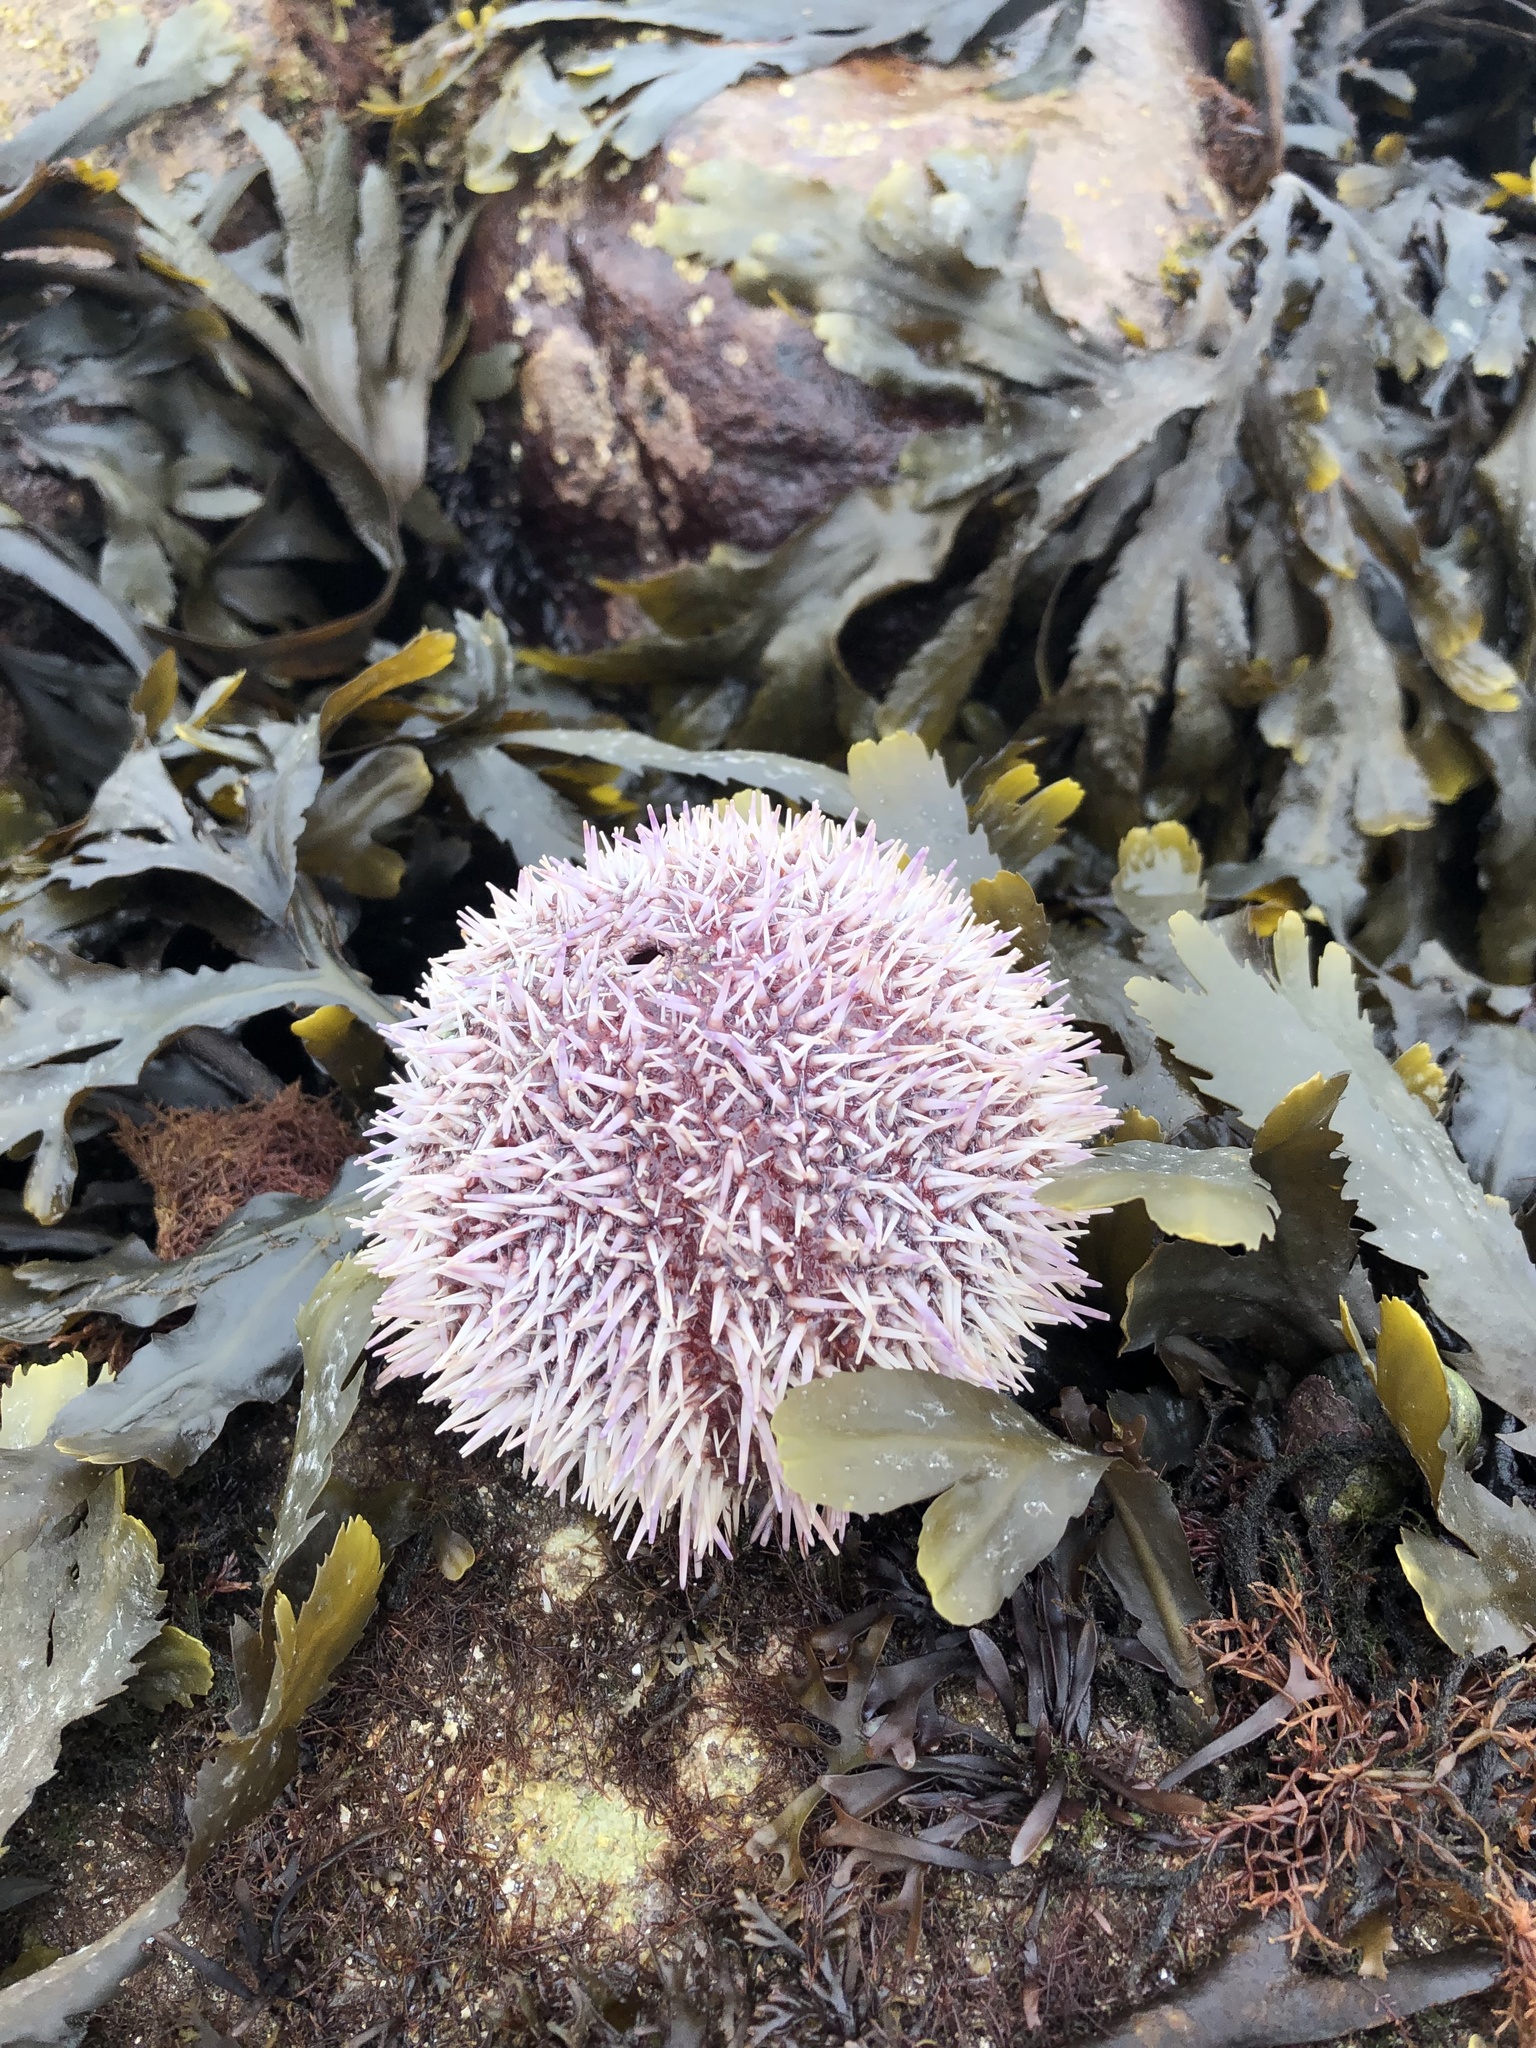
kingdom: Animalia
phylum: Echinodermata
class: Echinoidea
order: Camarodonta
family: Echinidae
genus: Echinus
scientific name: Echinus esculentus
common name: Edible sea urchin
